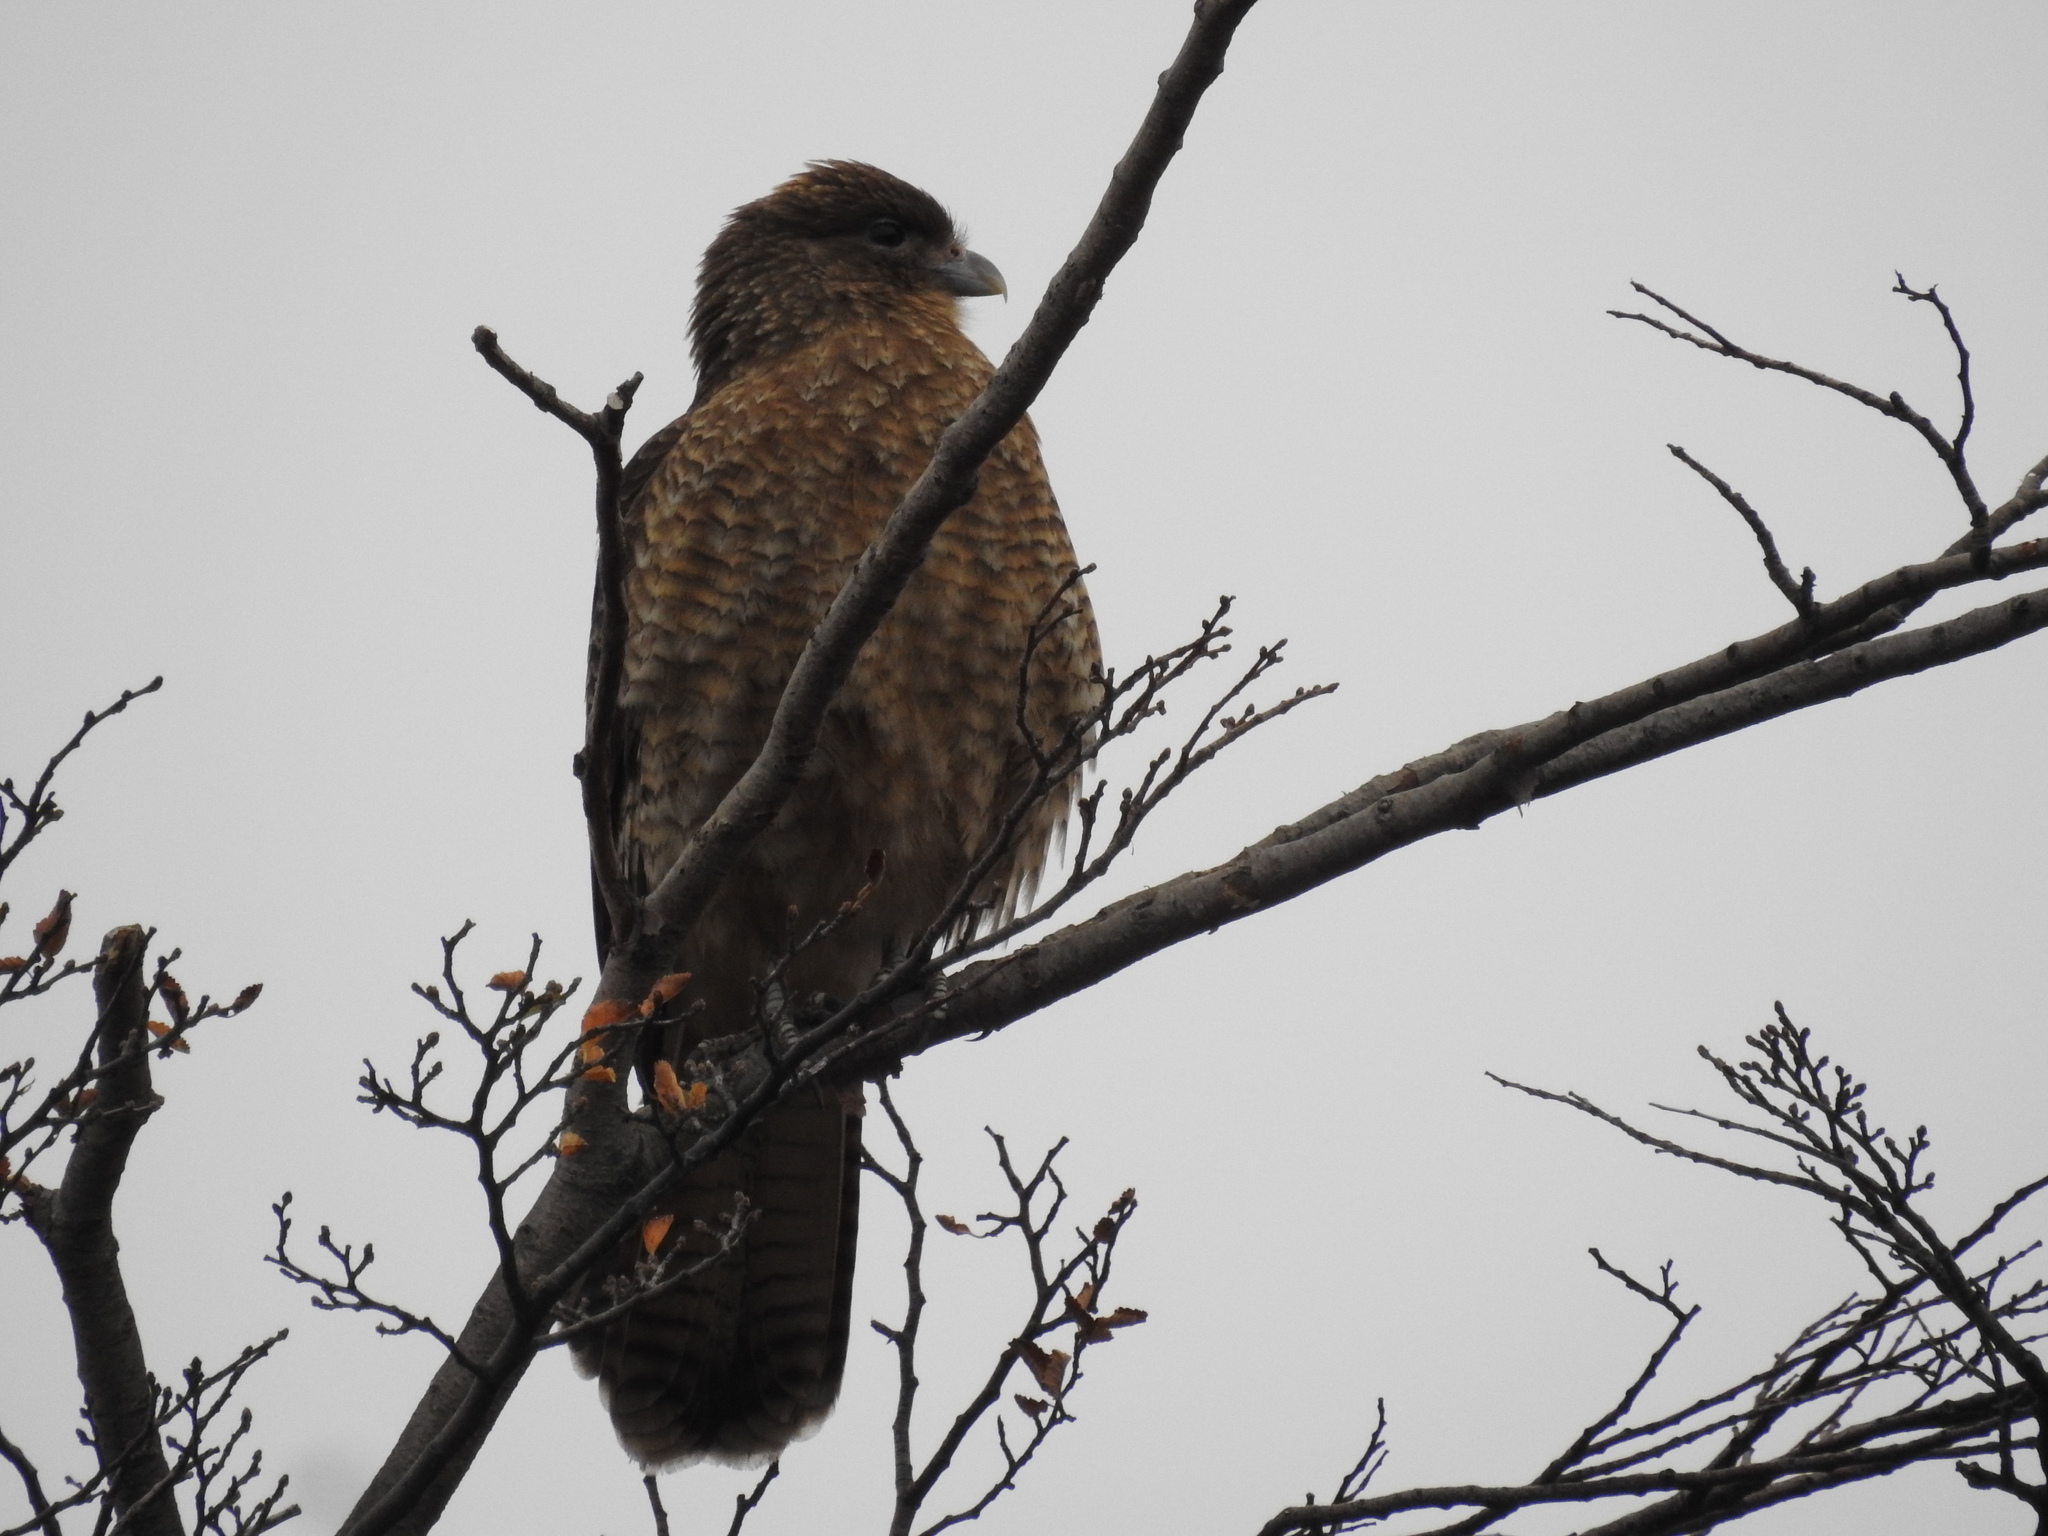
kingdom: Animalia
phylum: Chordata
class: Aves
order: Falconiformes
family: Falconidae
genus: Daptrius
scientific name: Daptrius
